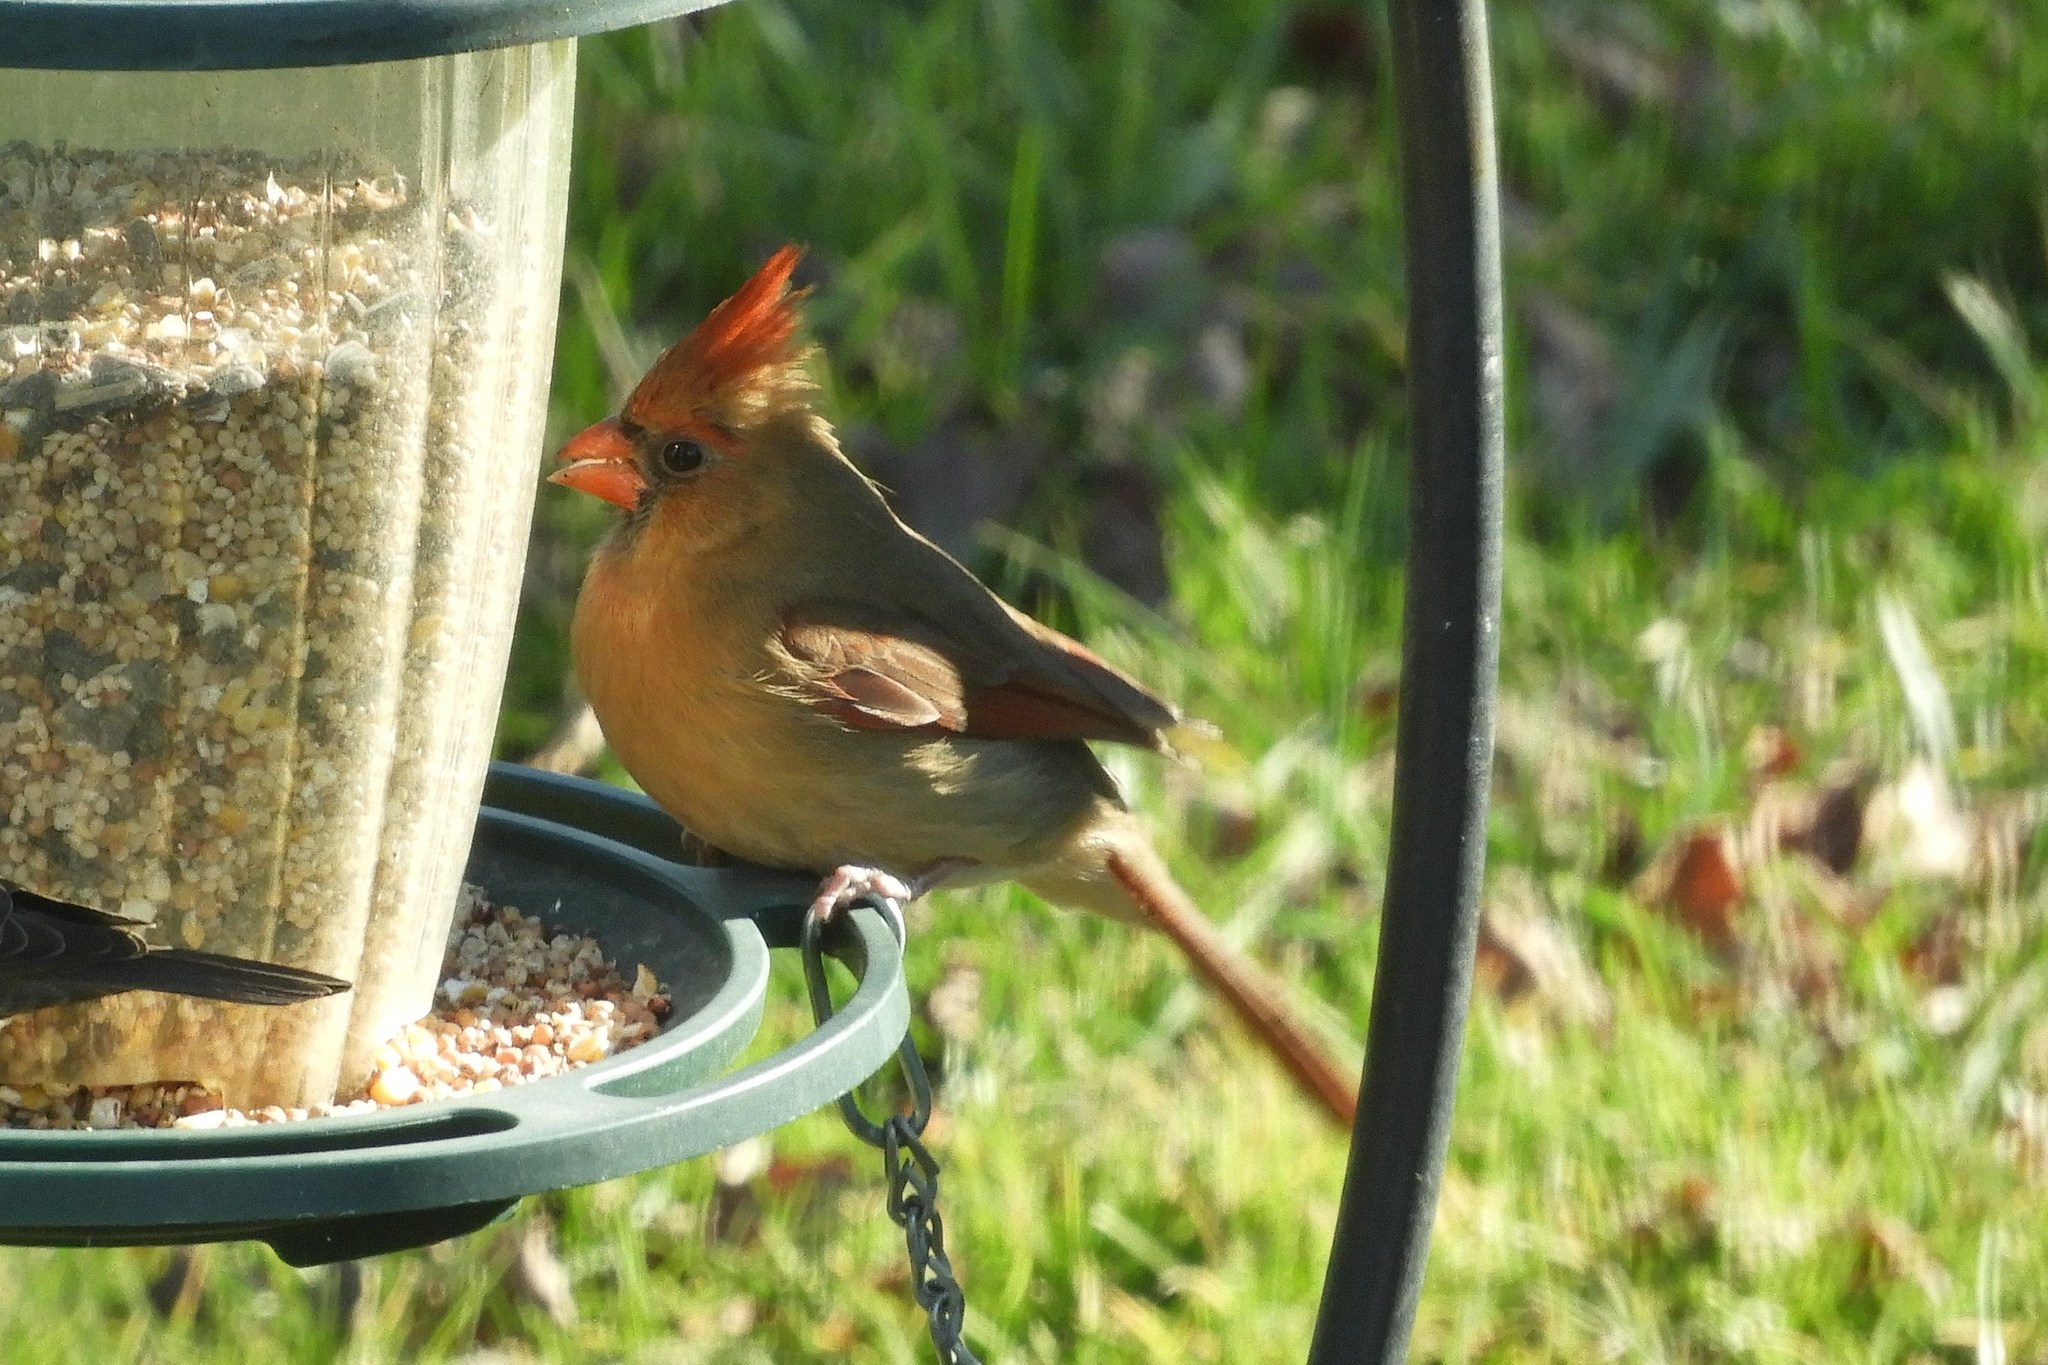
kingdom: Animalia
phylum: Chordata
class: Aves
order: Passeriformes
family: Cardinalidae
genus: Cardinalis
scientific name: Cardinalis cardinalis
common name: Northern cardinal
